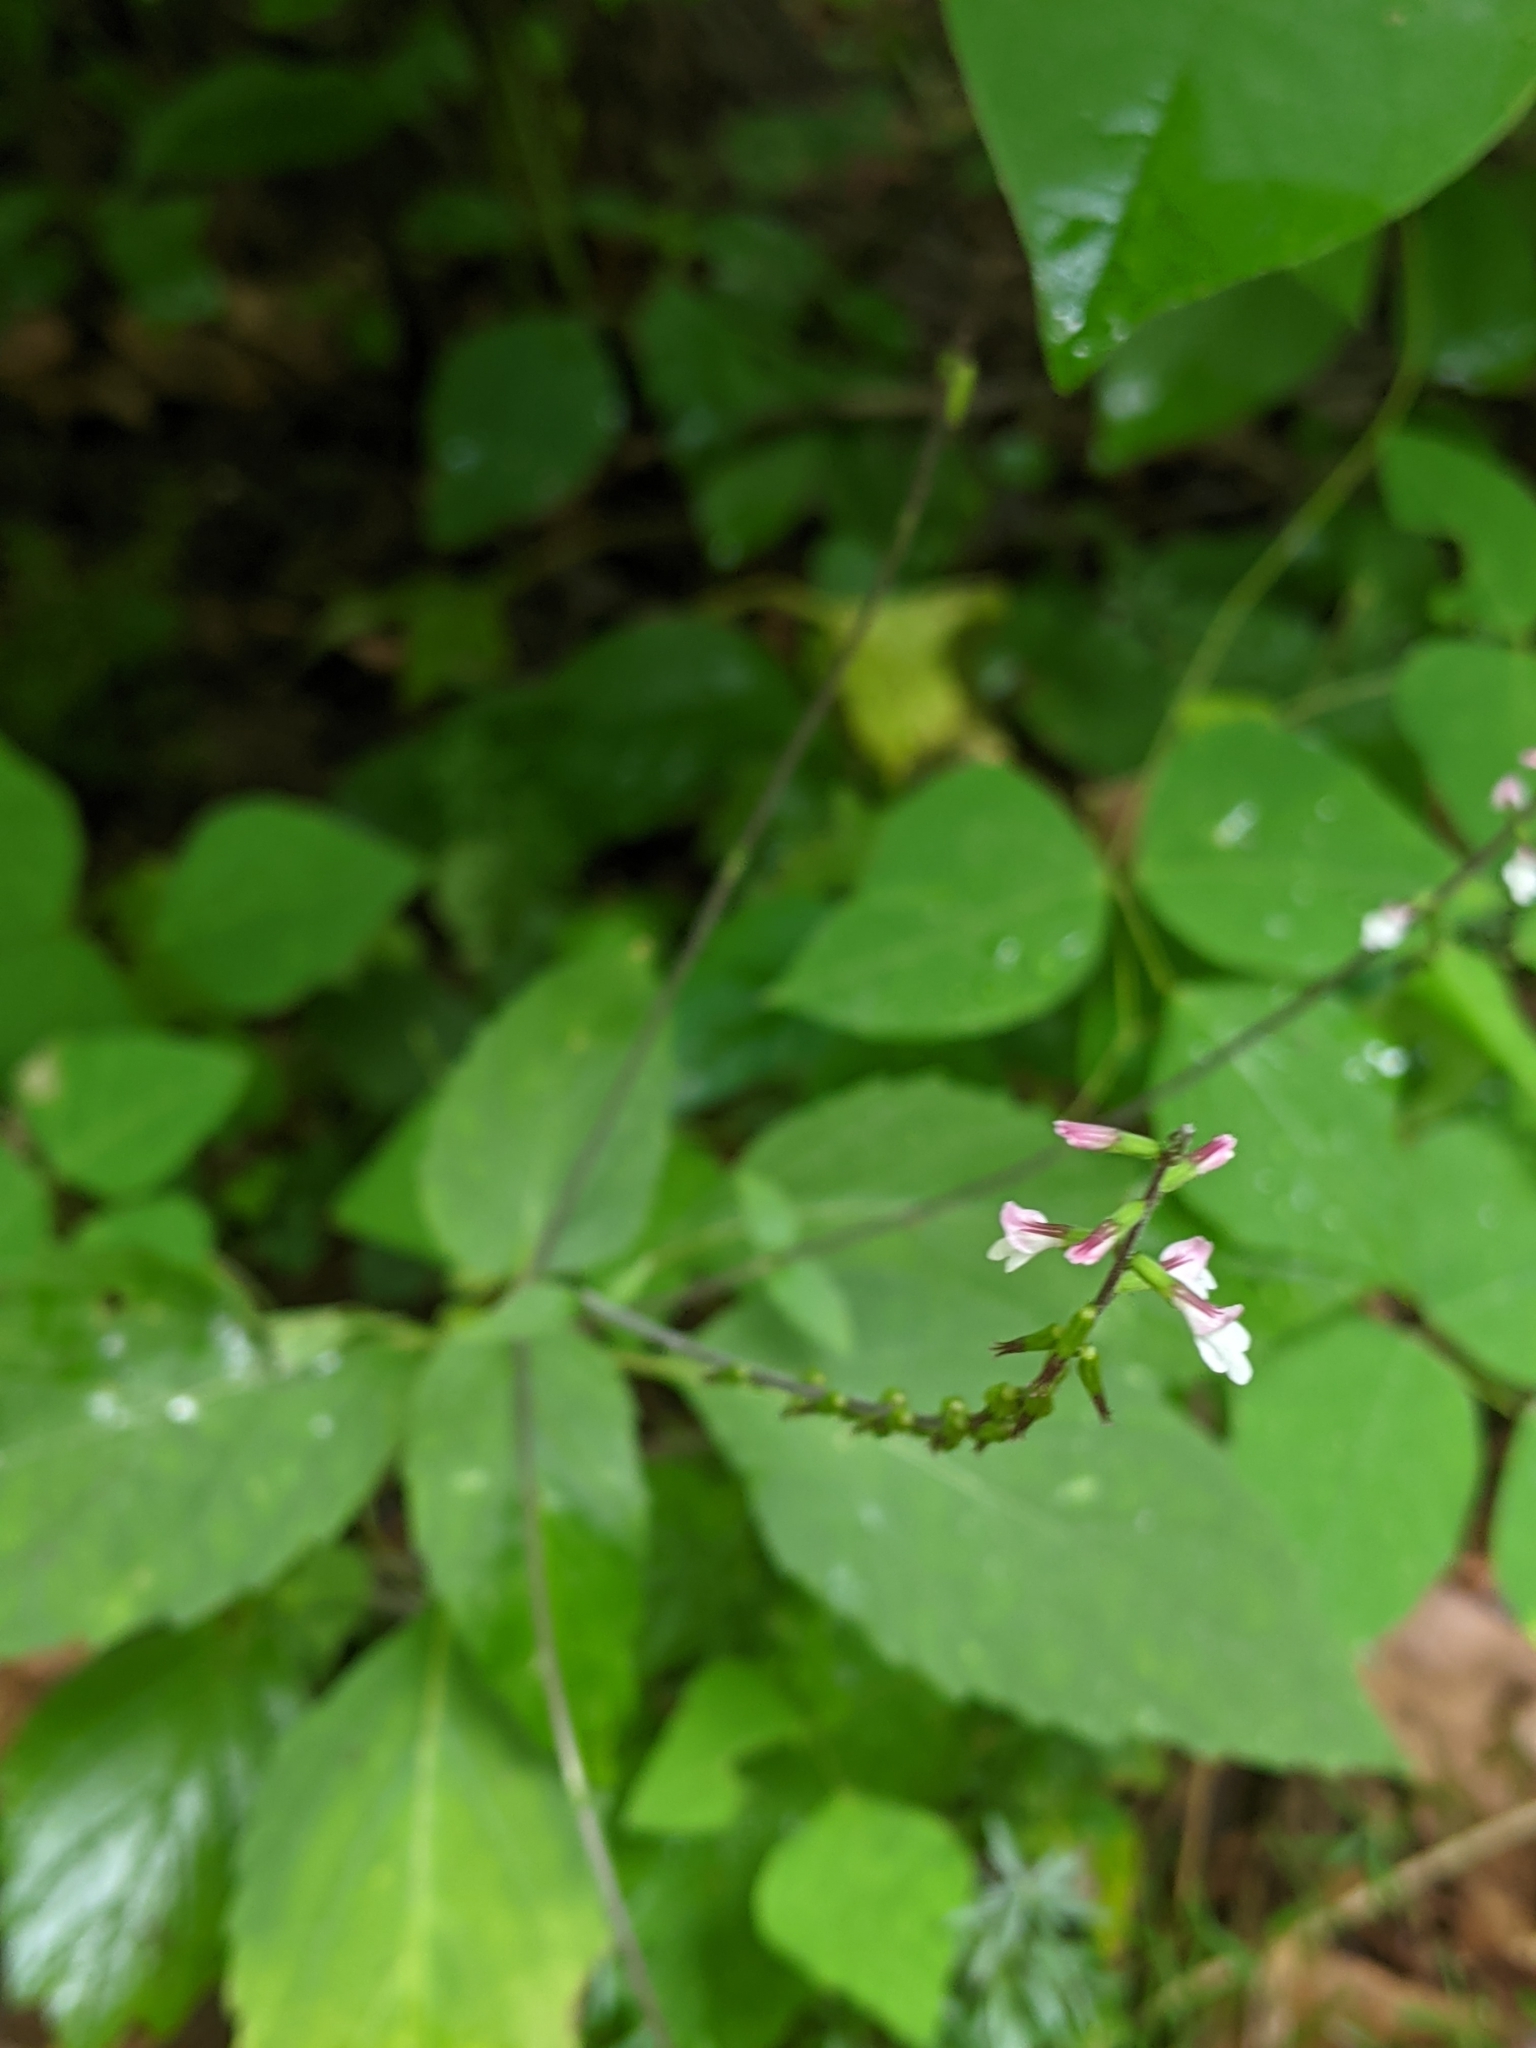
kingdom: Plantae
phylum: Tracheophyta
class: Magnoliopsida
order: Lamiales
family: Phrymaceae
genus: Phryma
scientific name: Phryma leptostachya
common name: American lopseed
